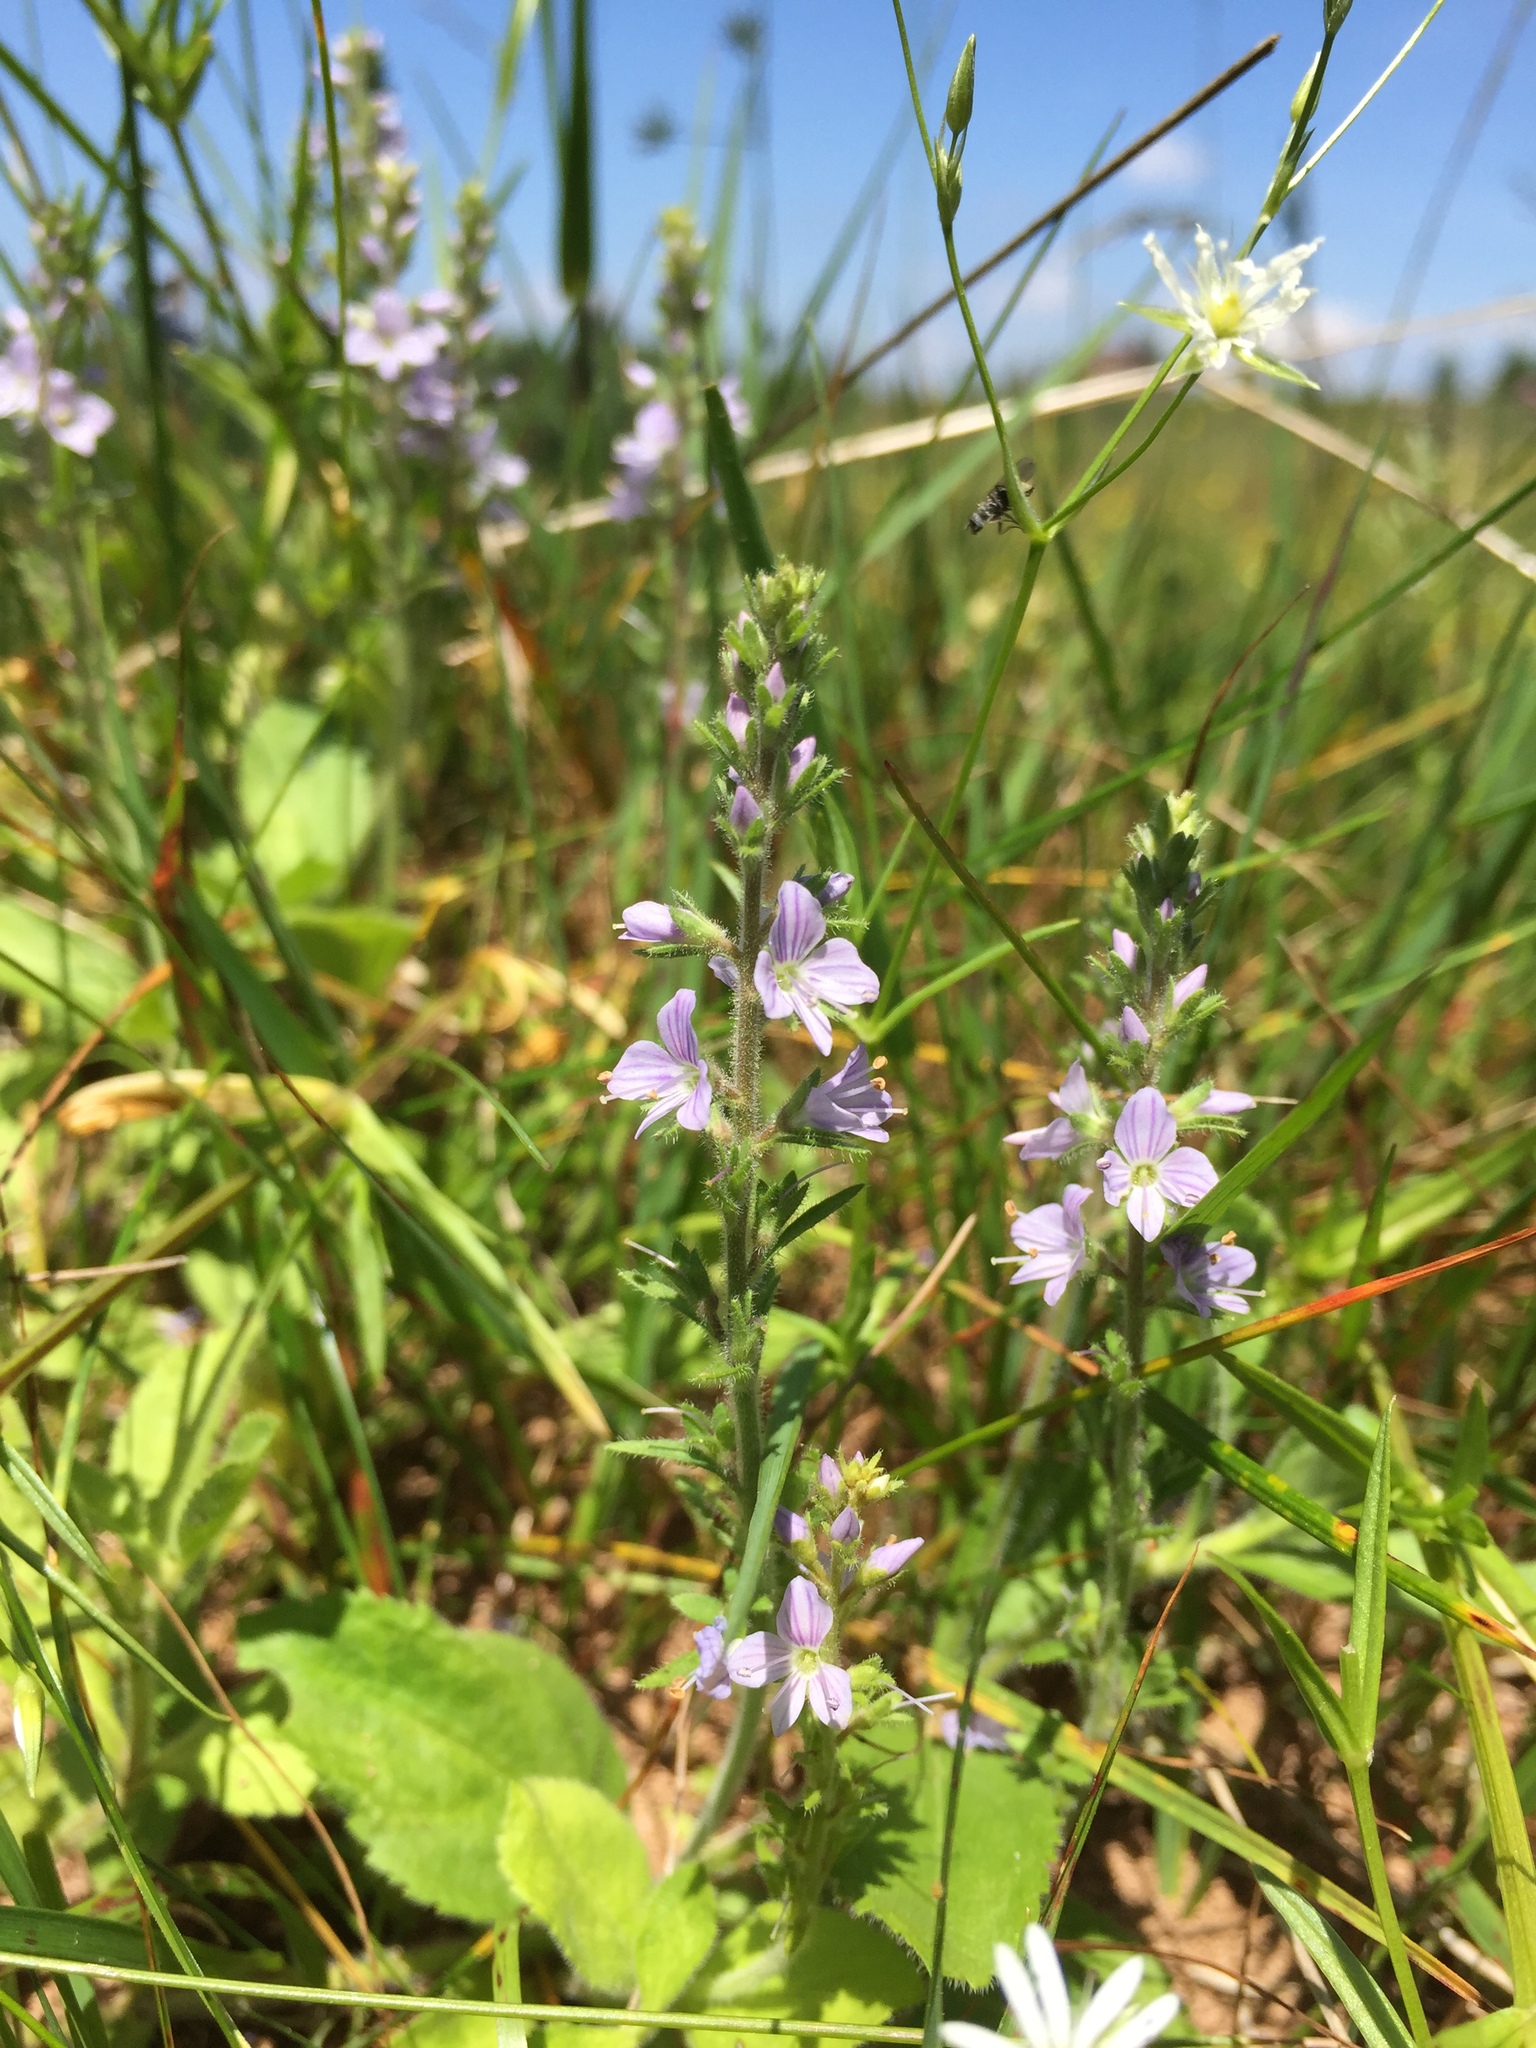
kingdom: Plantae
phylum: Tracheophyta
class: Magnoliopsida
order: Lamiales
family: Plantaginaceae
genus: Veronica
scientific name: Veronica officinalis
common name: Common speedwell
